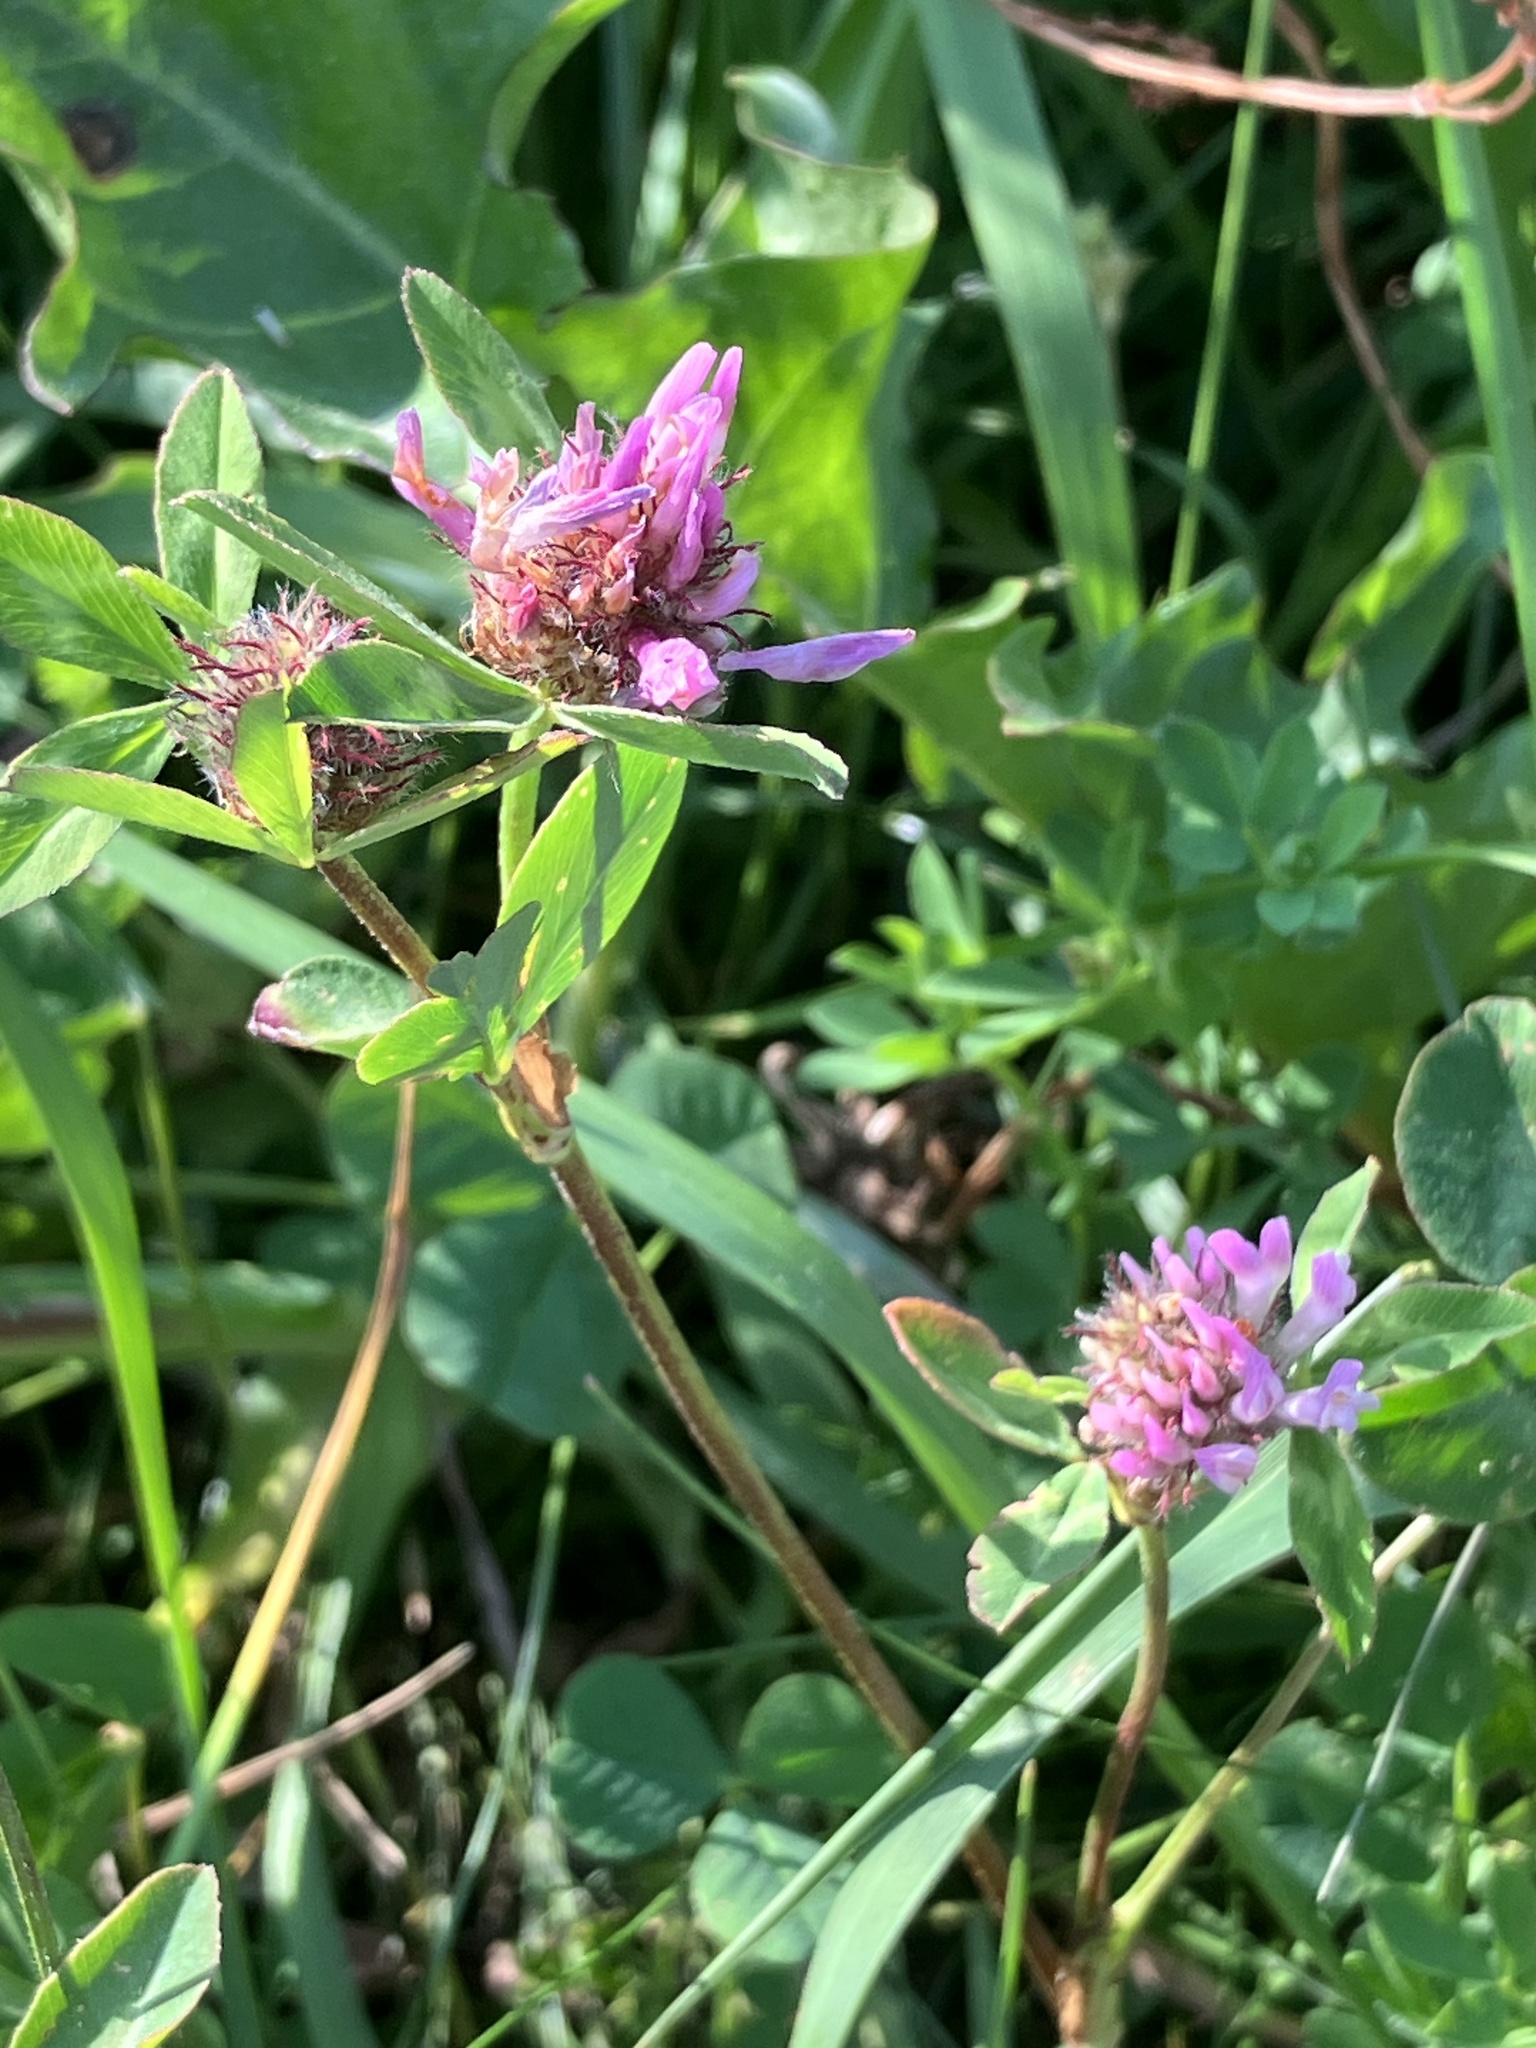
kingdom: Plantae
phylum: Tracheophyta
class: Magnoliopsida
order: Fabales
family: Fabaceae
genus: Trifolium
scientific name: Trifolium medium
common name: Zigzag clover
